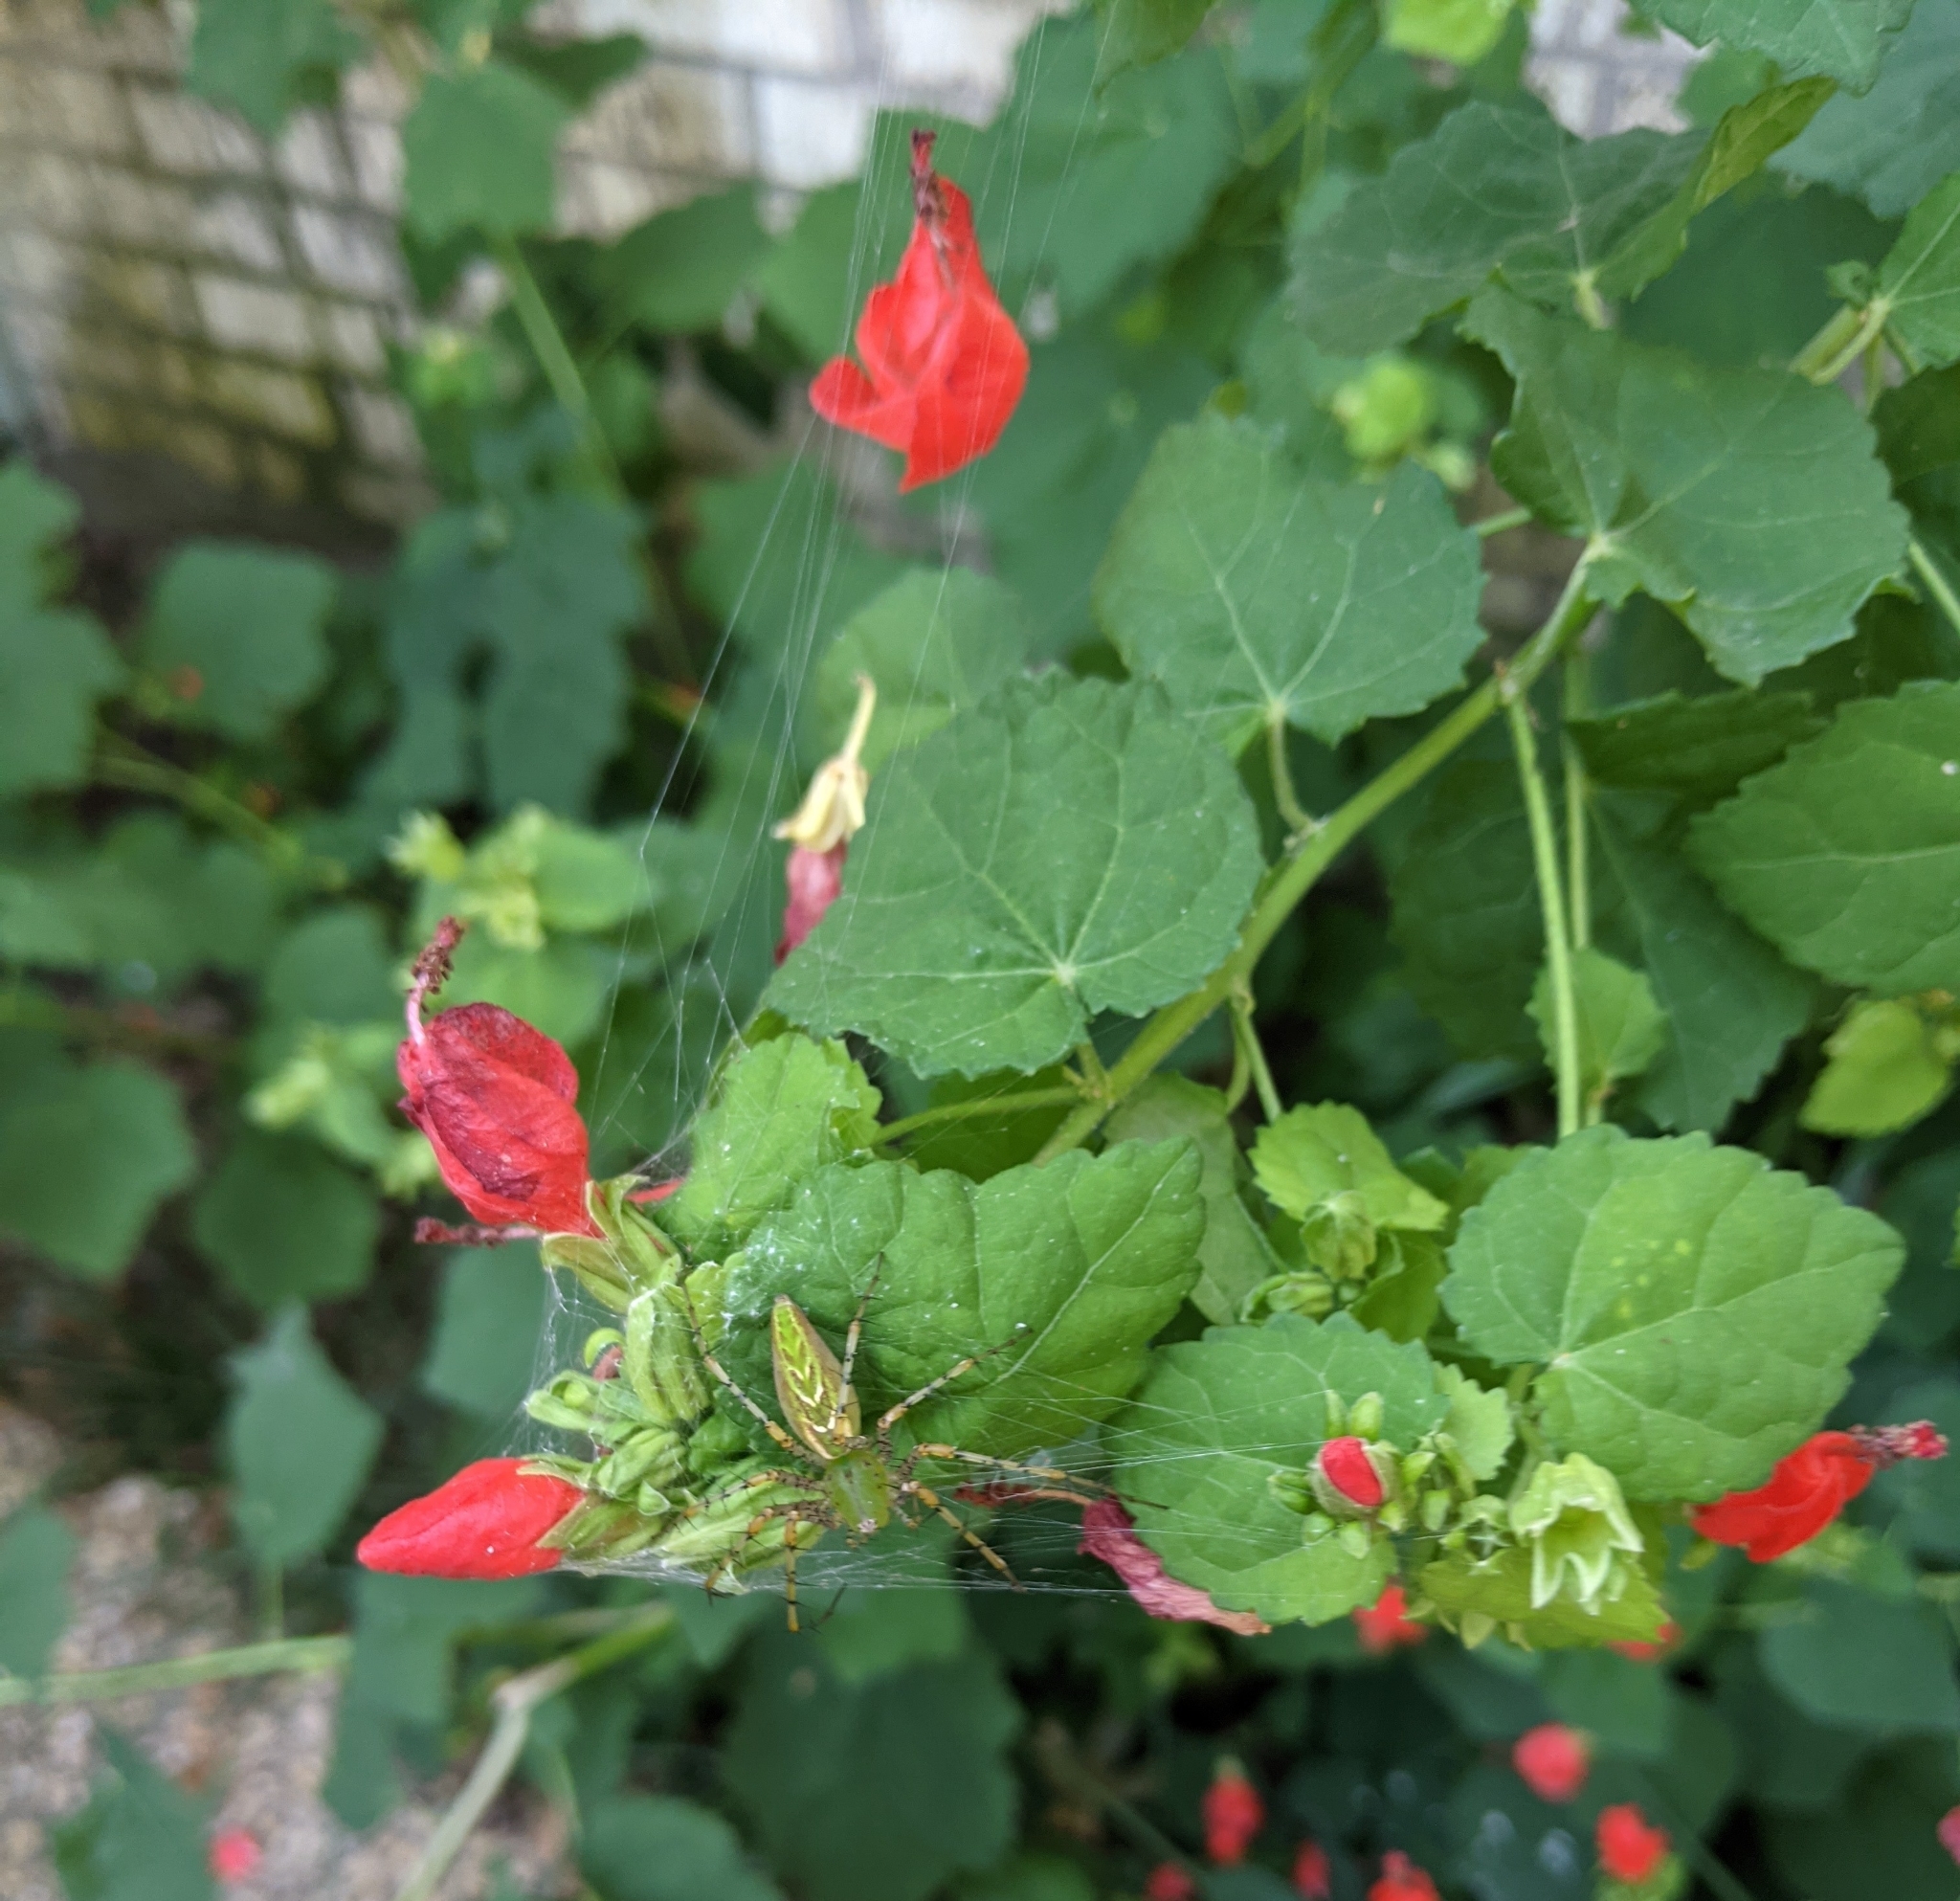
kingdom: Animalia
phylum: Arthropoda
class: Arachnida
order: Araneae
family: Oxyopidae
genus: Peucetia
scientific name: Peucetia viridans
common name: Lynx spiders
